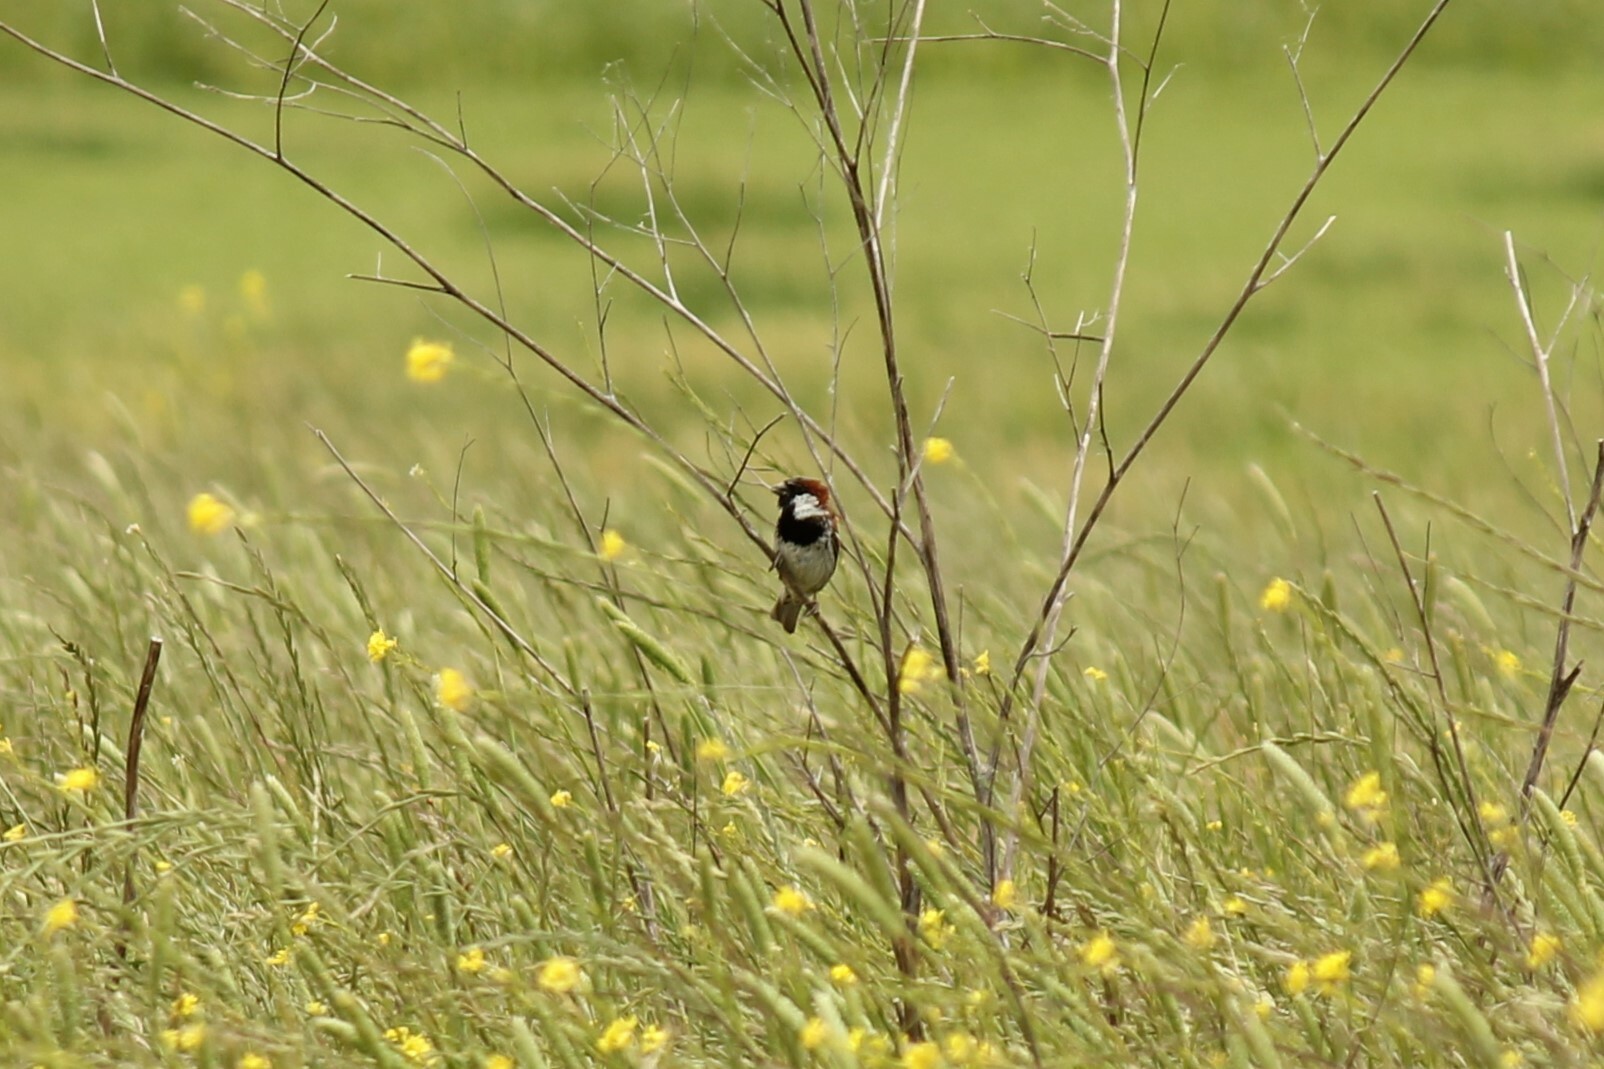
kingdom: Animalia
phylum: Chordata
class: Aves
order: Passeriformes
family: Passeridae
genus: Passer
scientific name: Passer domesticus
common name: House sparrow
